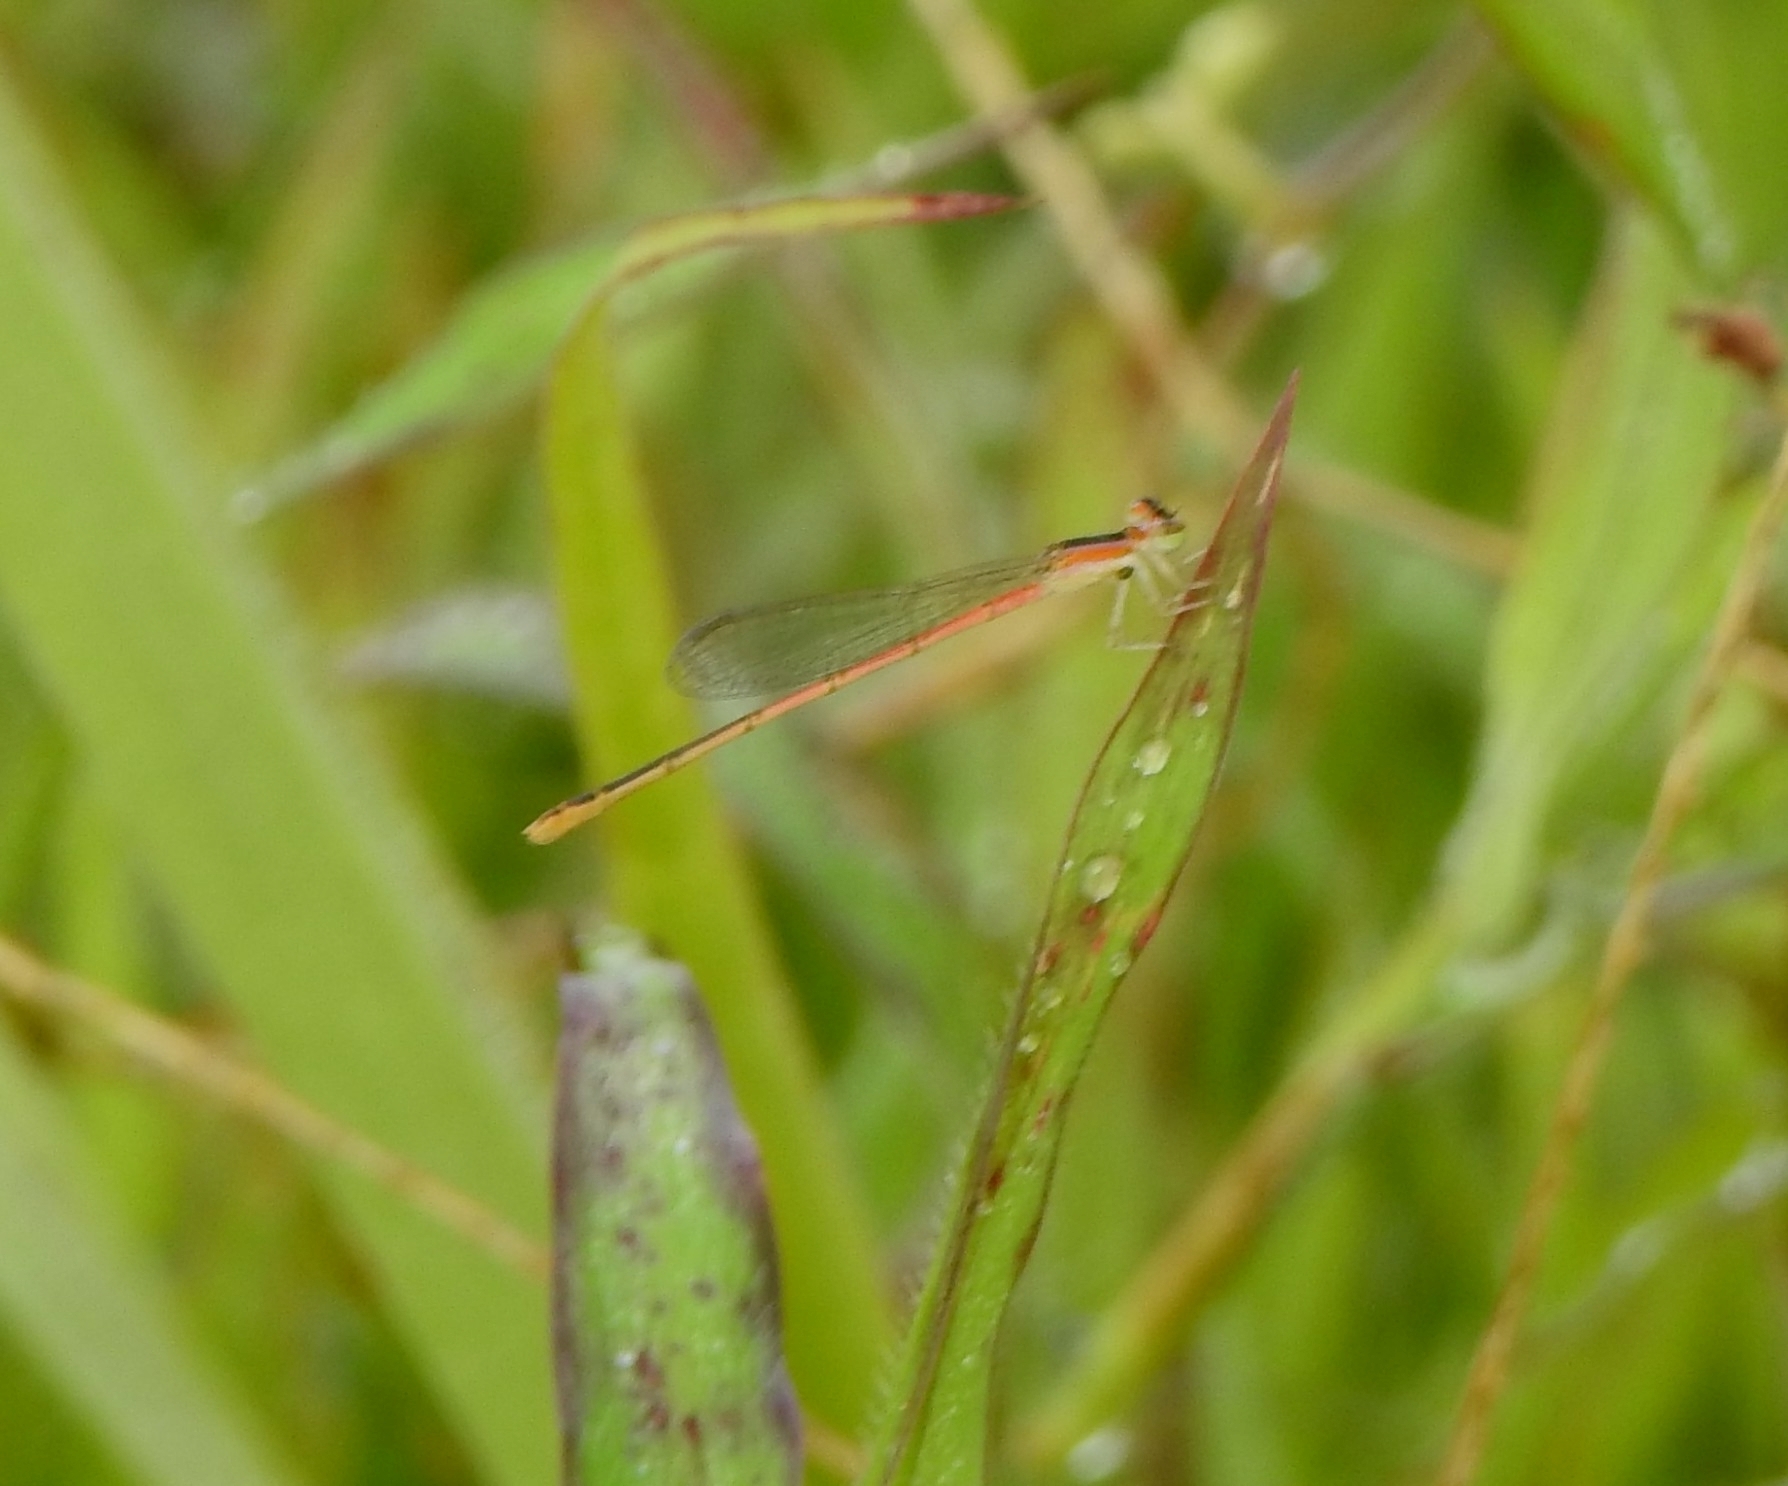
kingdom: Animalia
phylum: Arthropoda
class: Insecta
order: Odonata
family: Coenagrionidae
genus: Agriocnemis
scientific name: Agriocnemis pygmaea
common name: Pygmy wisp
